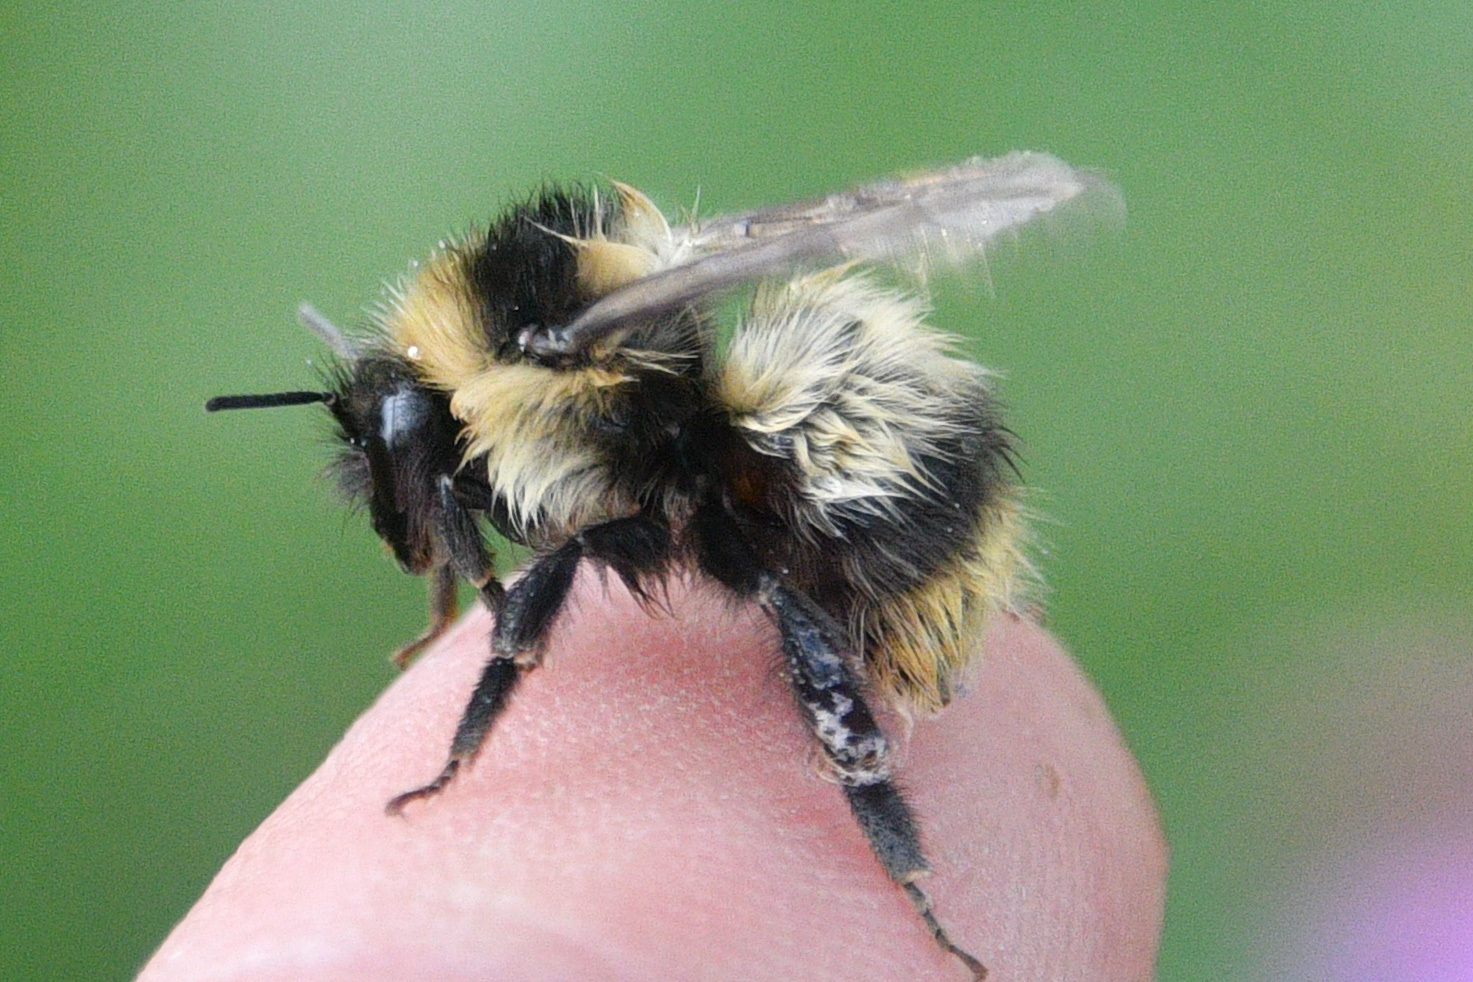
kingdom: Animalia
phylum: Arthropoda
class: Insecta
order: Hymenoptera
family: Apidae
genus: Bombus
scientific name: Bombus frigidus
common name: Frigid bumble bee
